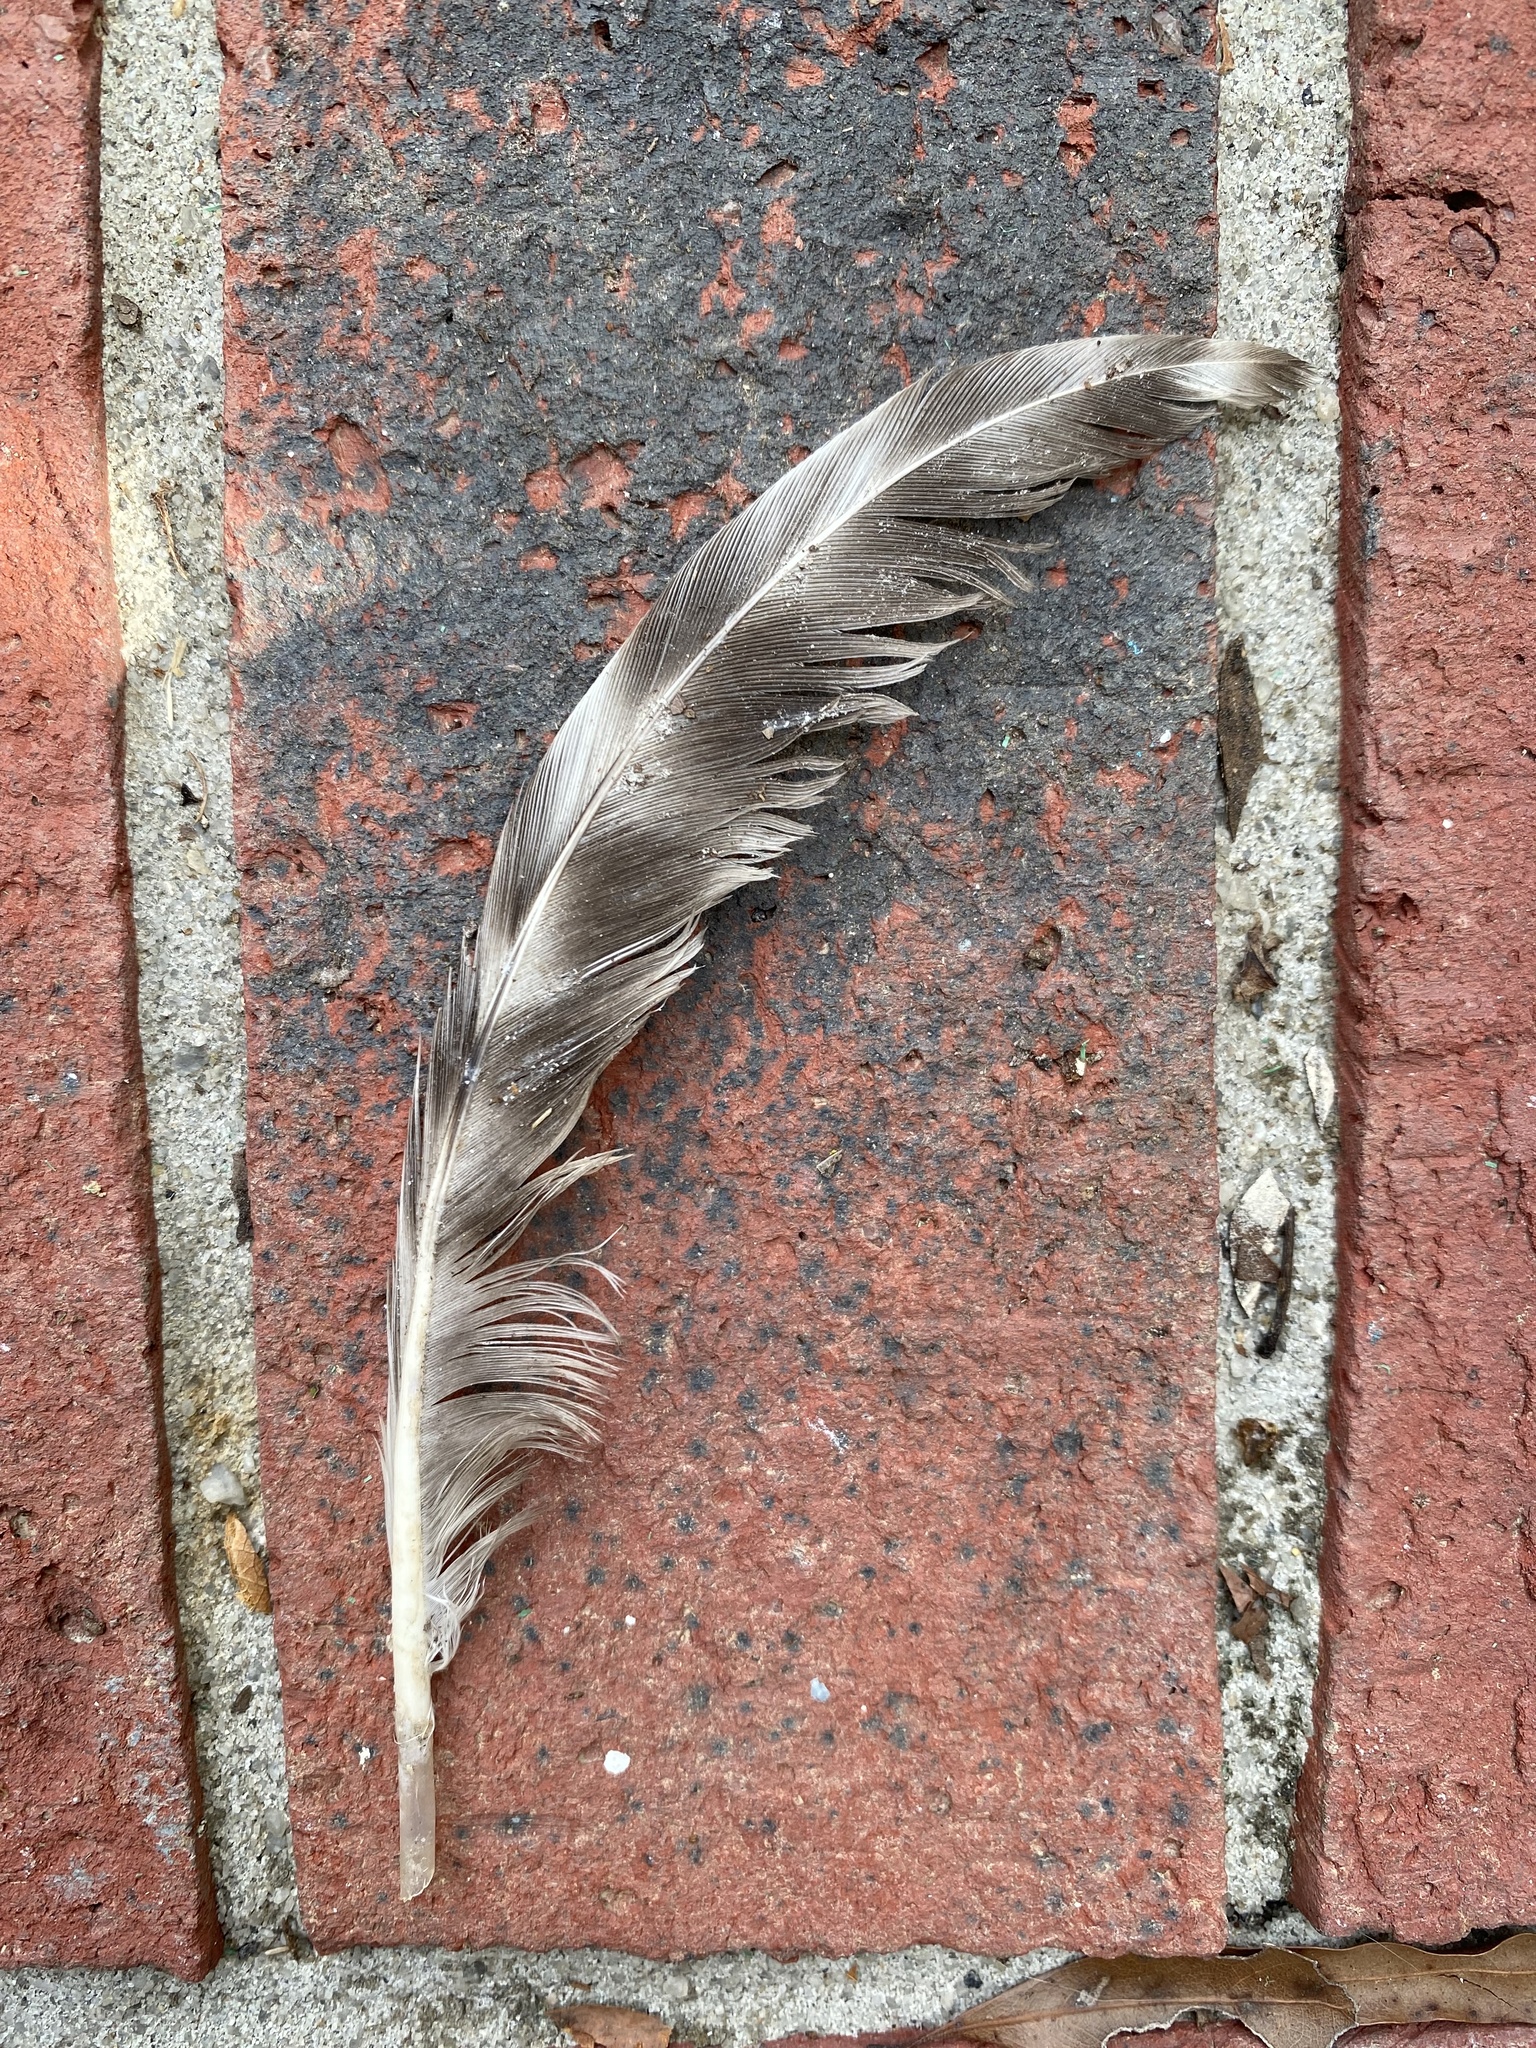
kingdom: Animalia
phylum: Chordata
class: Aves
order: Galliformes
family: Phasianidae
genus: Gallus
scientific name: Gallus gallus
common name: Red junglefowl
